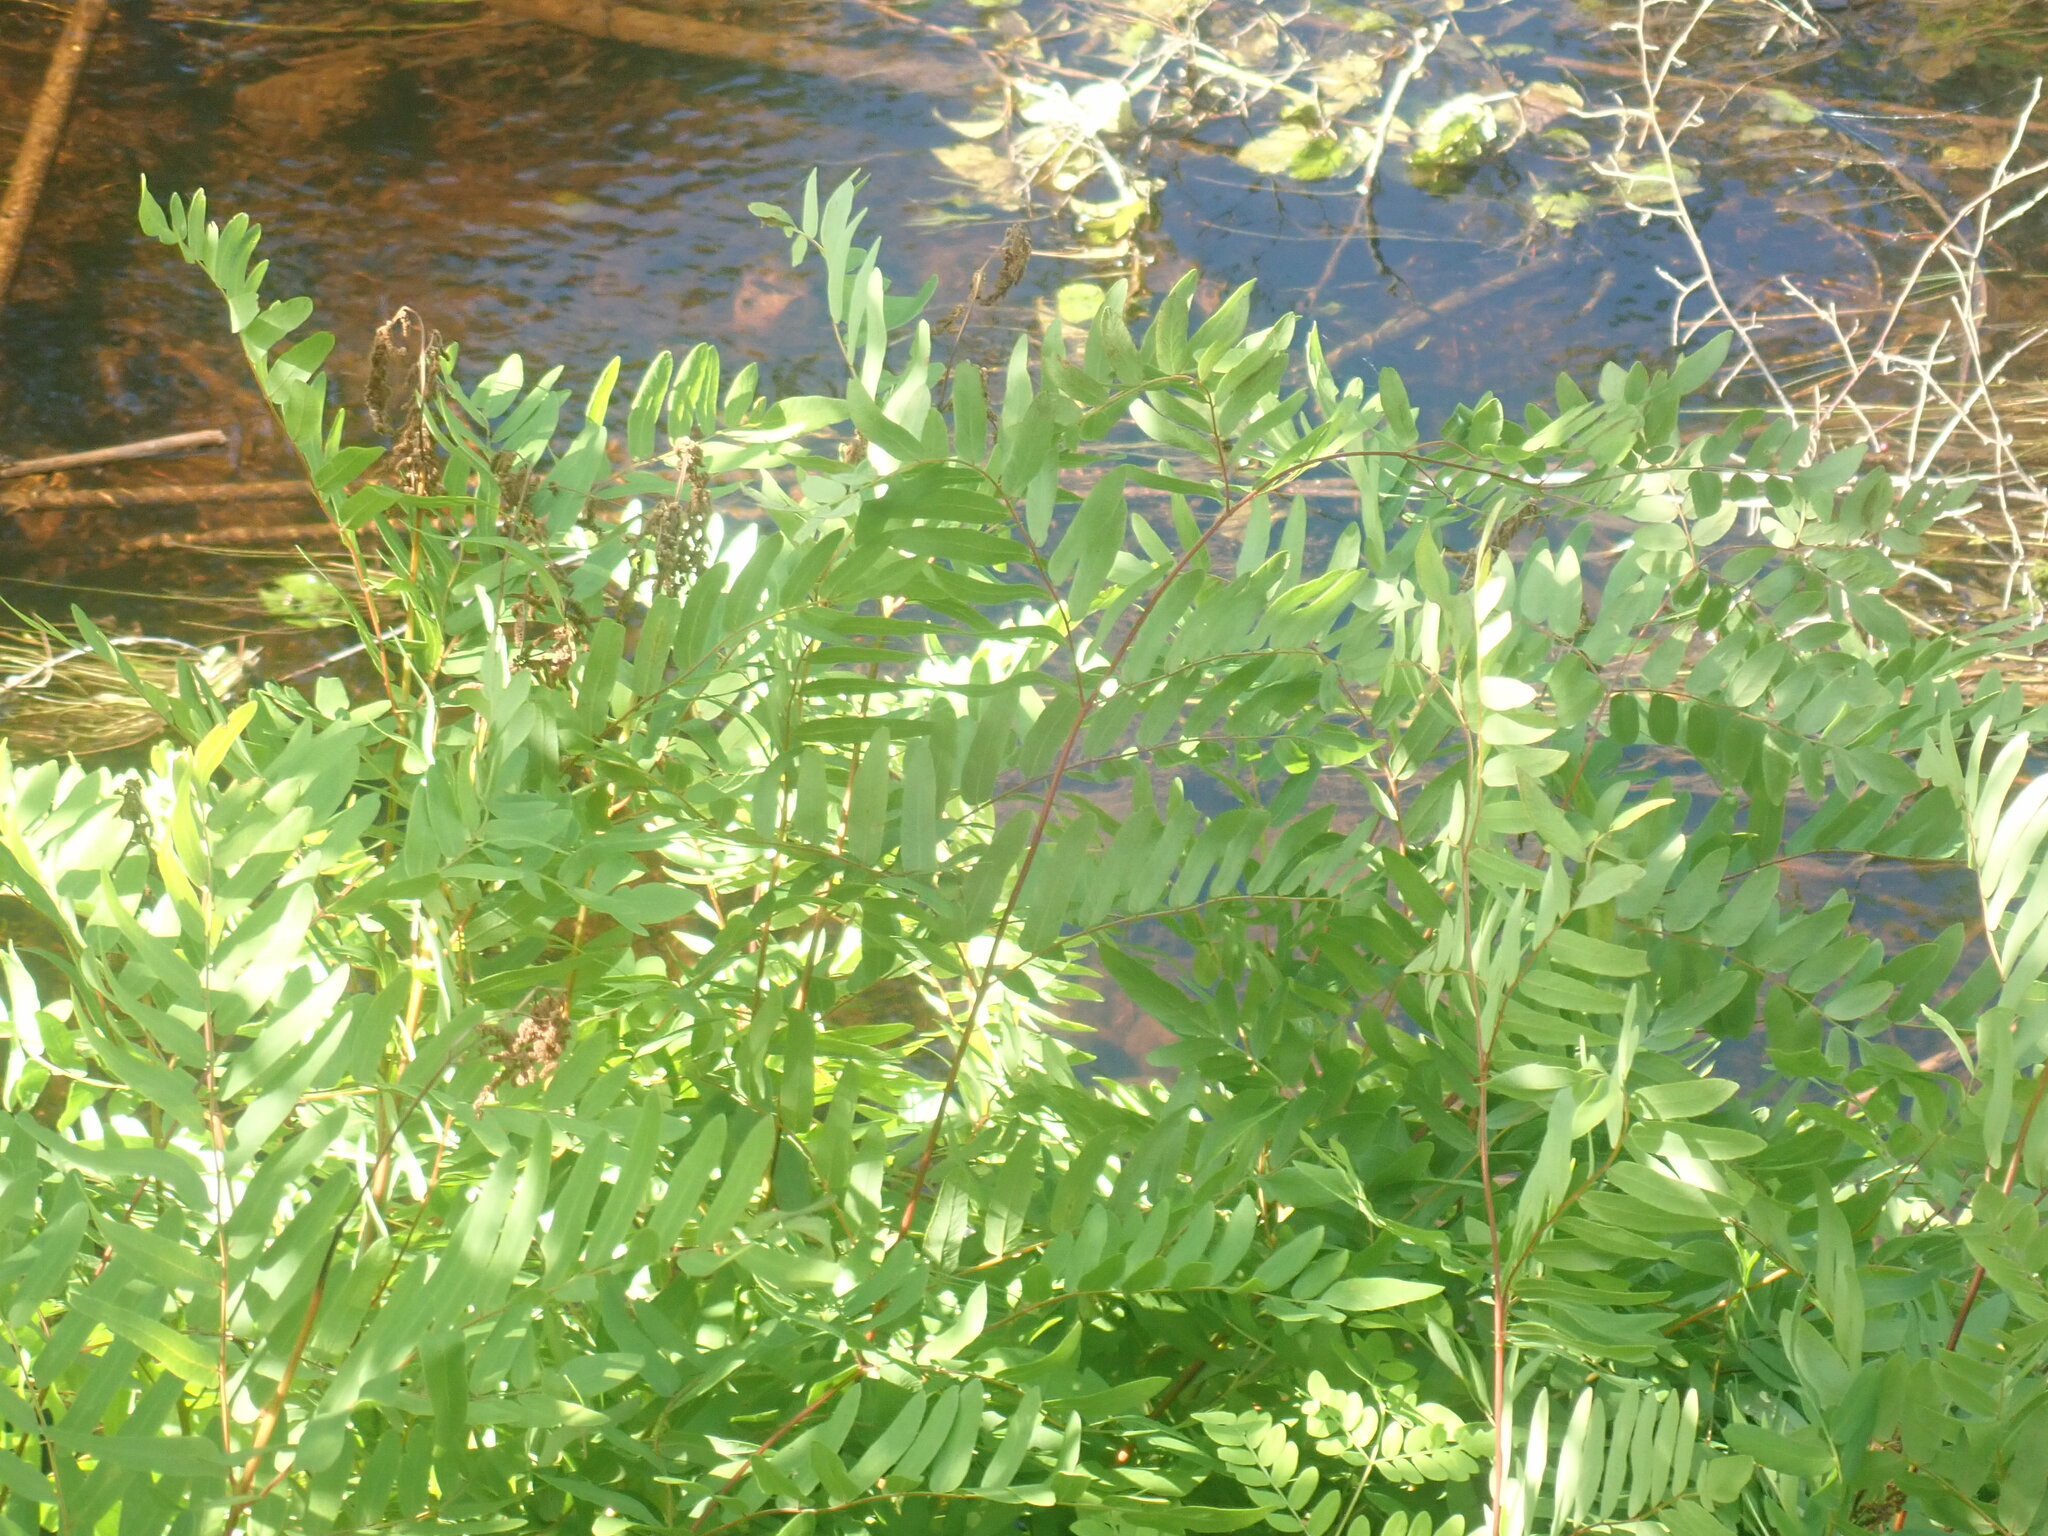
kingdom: Plantae
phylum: Tracheophyta
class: Polypodiopsida
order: Osmundales
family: Osmundaceae
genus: Osmunda
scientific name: Osmunda spectabilis
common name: American royal fern
